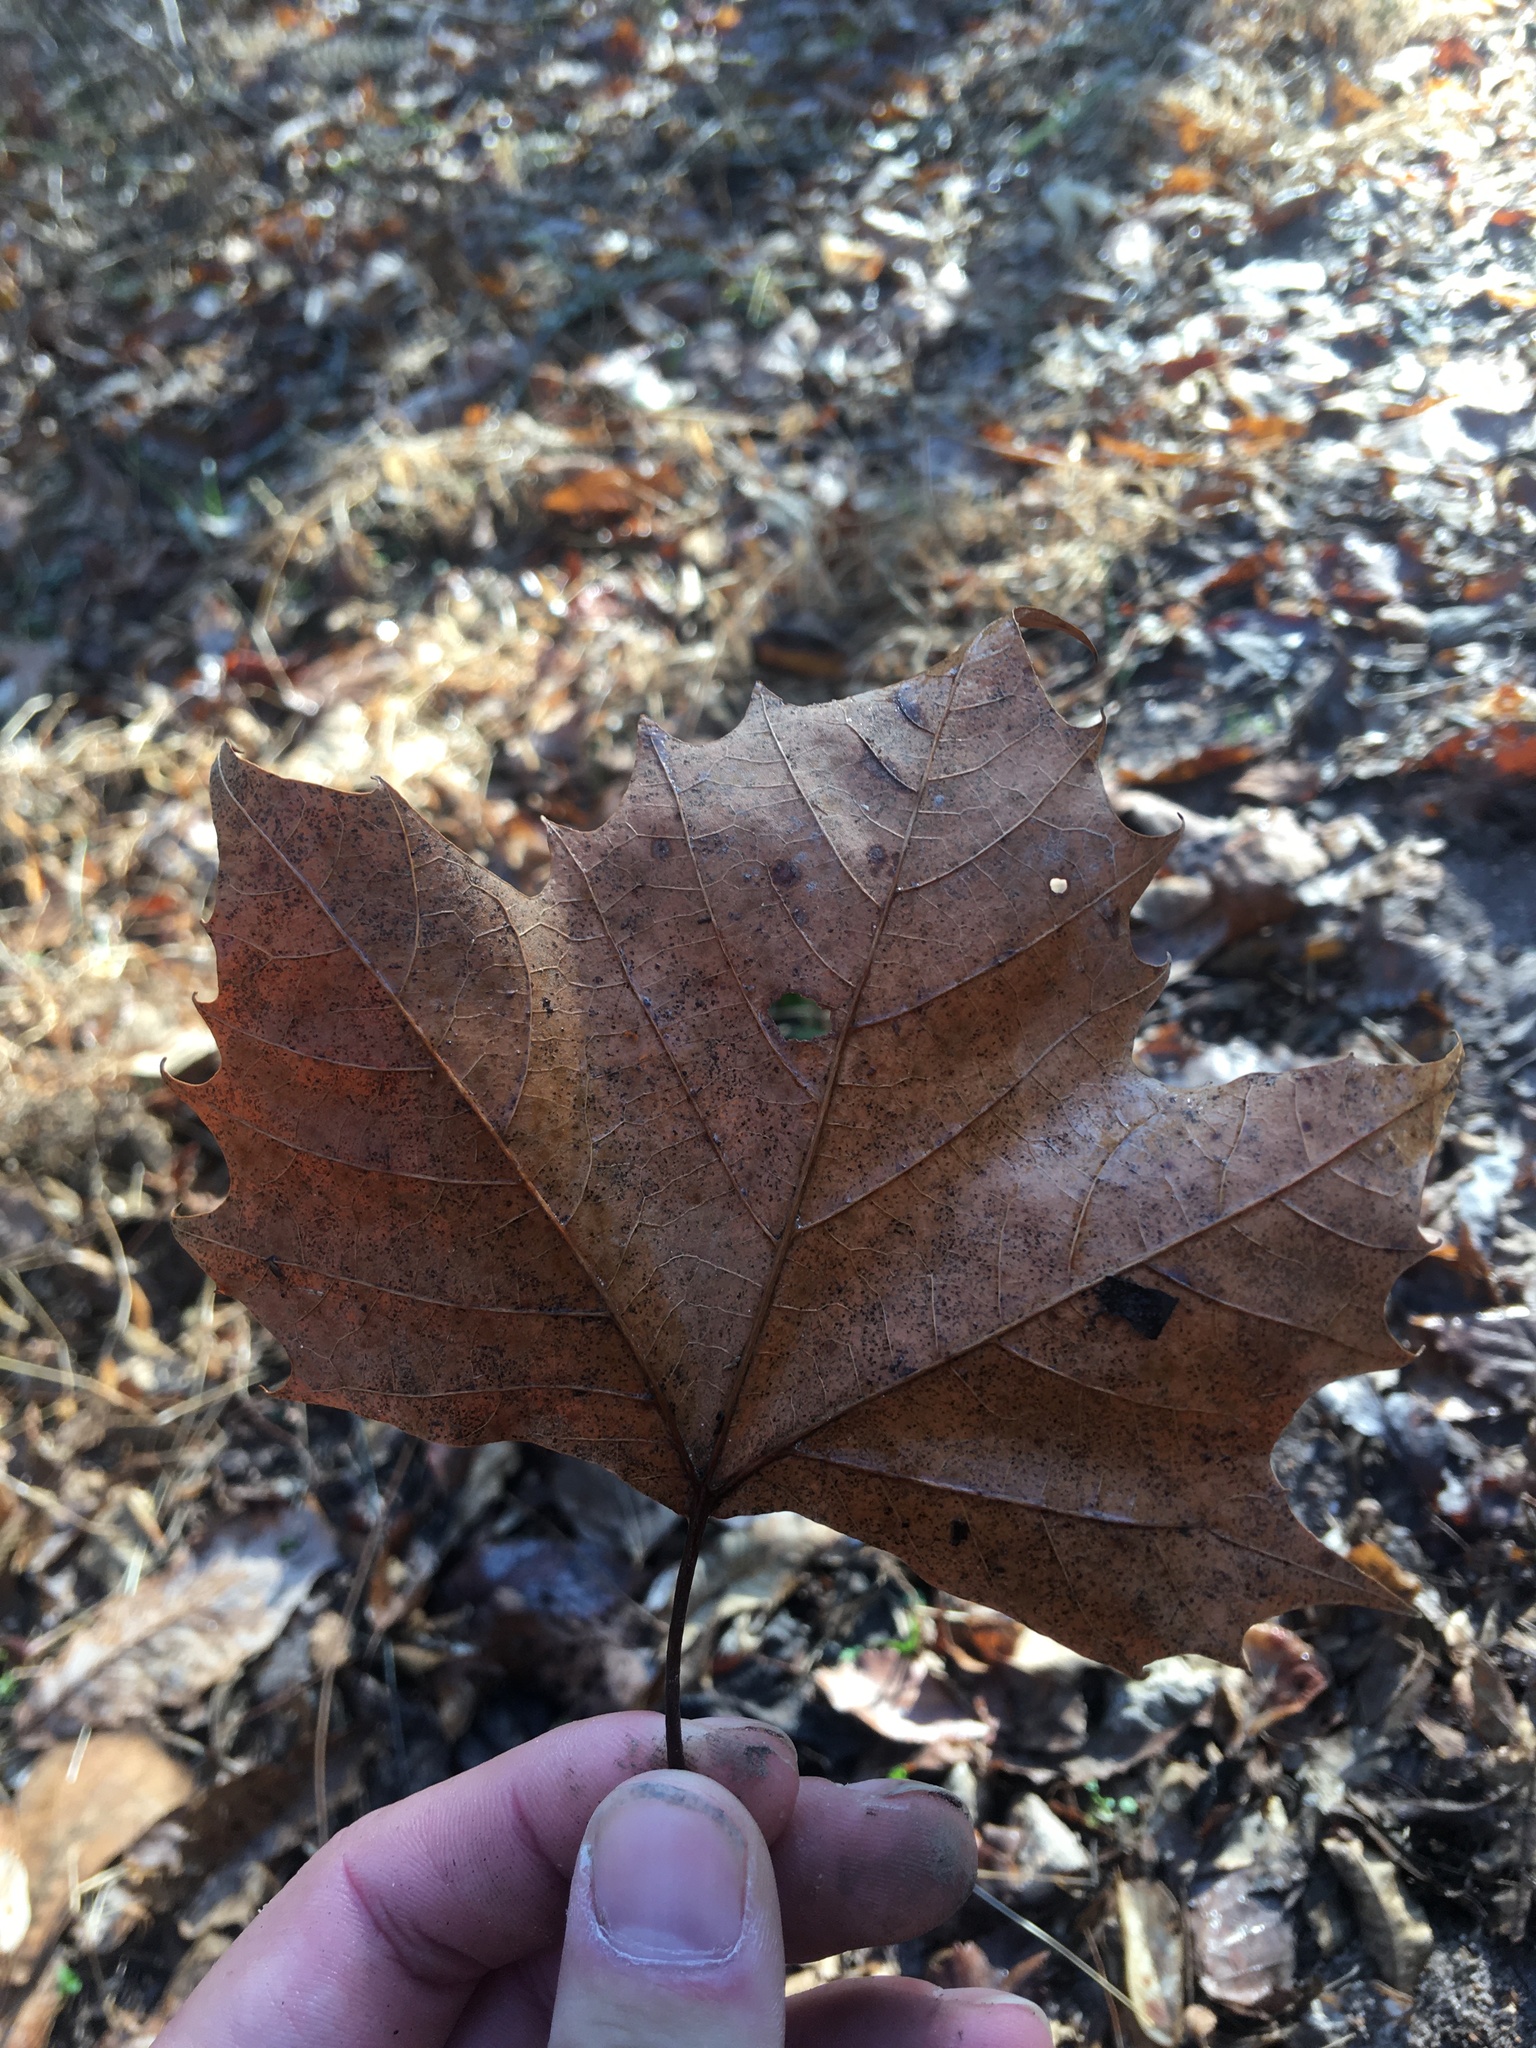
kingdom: Plantae
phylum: Tracheophyta
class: Magnoliopsida
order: Proteales
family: Platanaceae
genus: Platanus
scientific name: Platanus occidentalis
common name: American sycamore
